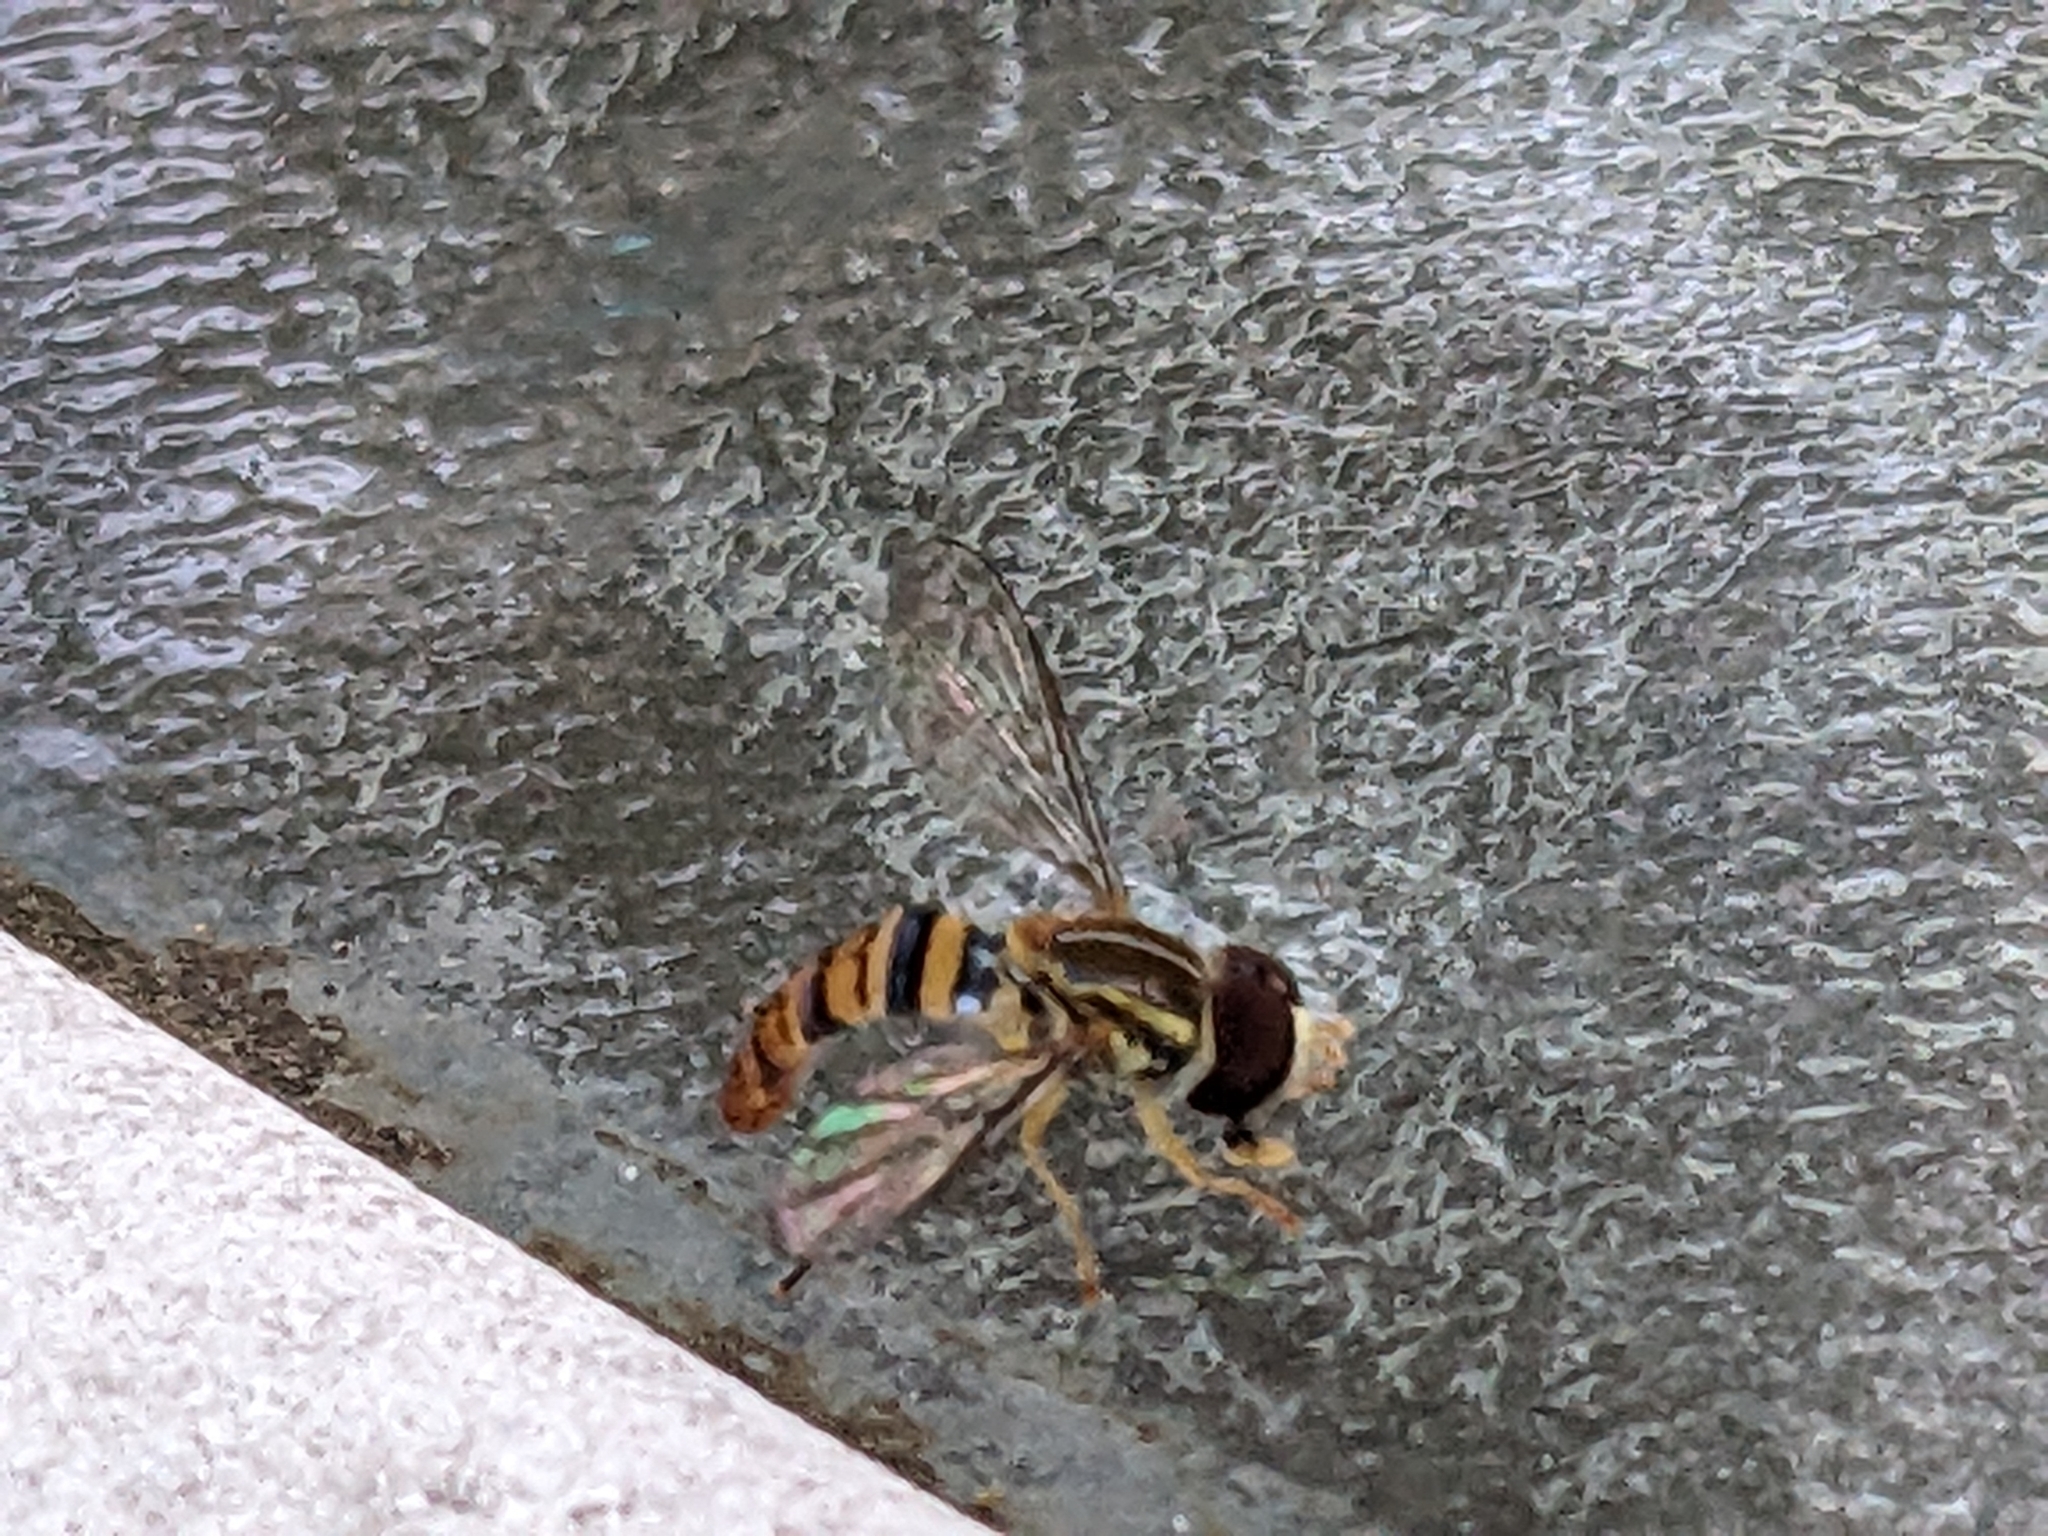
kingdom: Animalia
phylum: Arthropoda
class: Insecta
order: Diptera
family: Syrphidae
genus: Toxomerus
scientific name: Toxomerus politus
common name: Maize calligrapher
